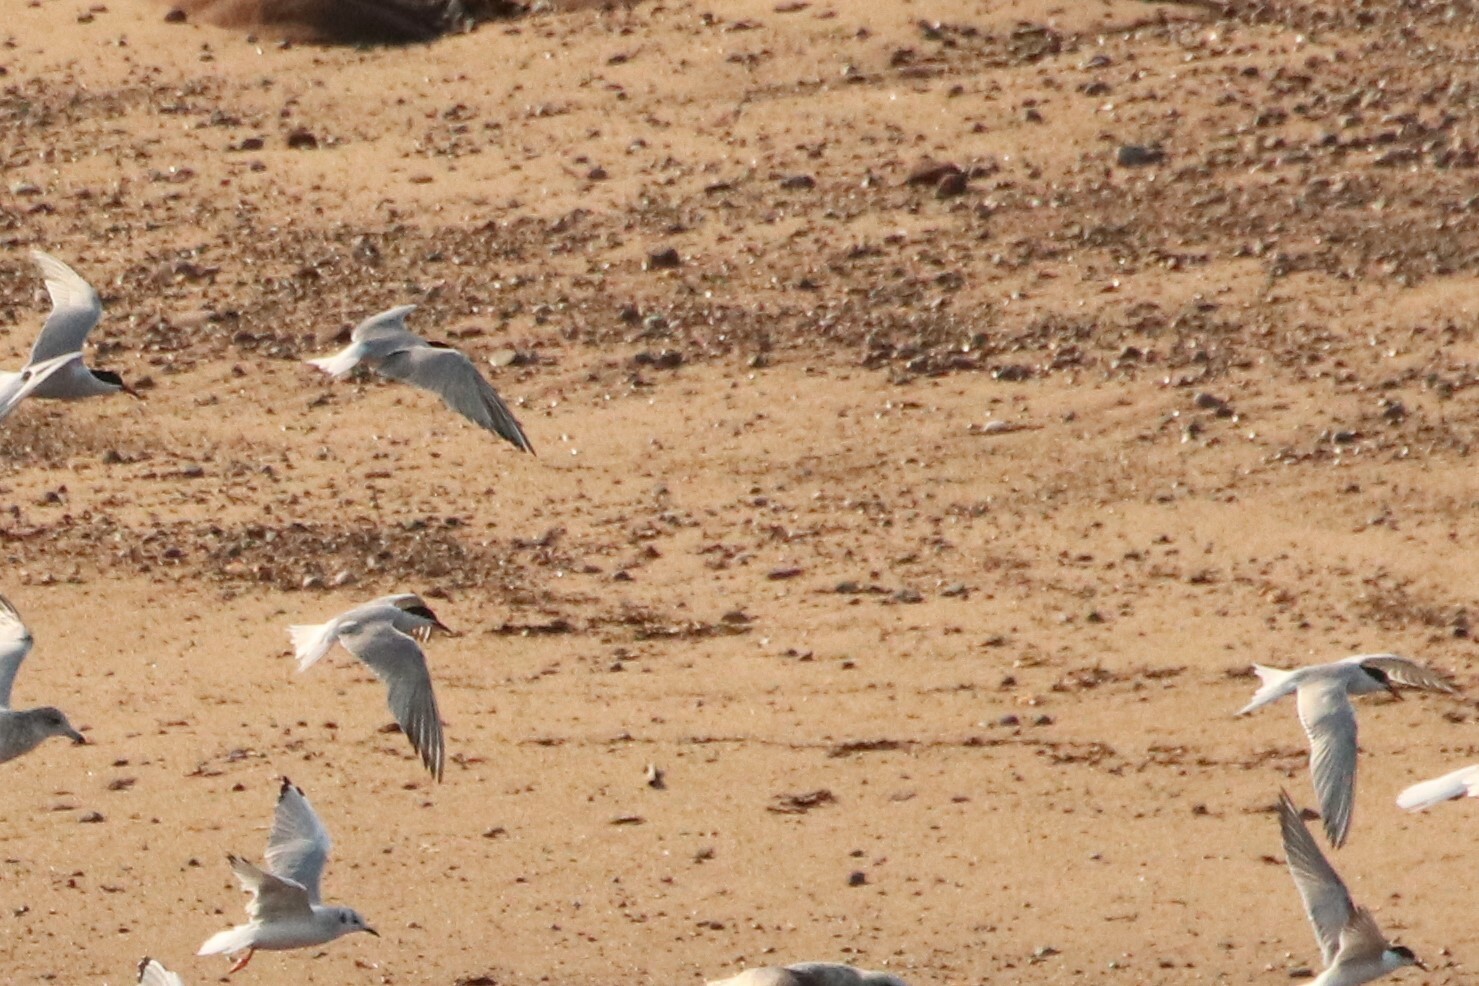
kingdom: Animalia
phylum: Chordata
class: Aves
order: Charadriiformes
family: Laridae
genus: Sterna
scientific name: Sterna hirundo
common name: Common tern
